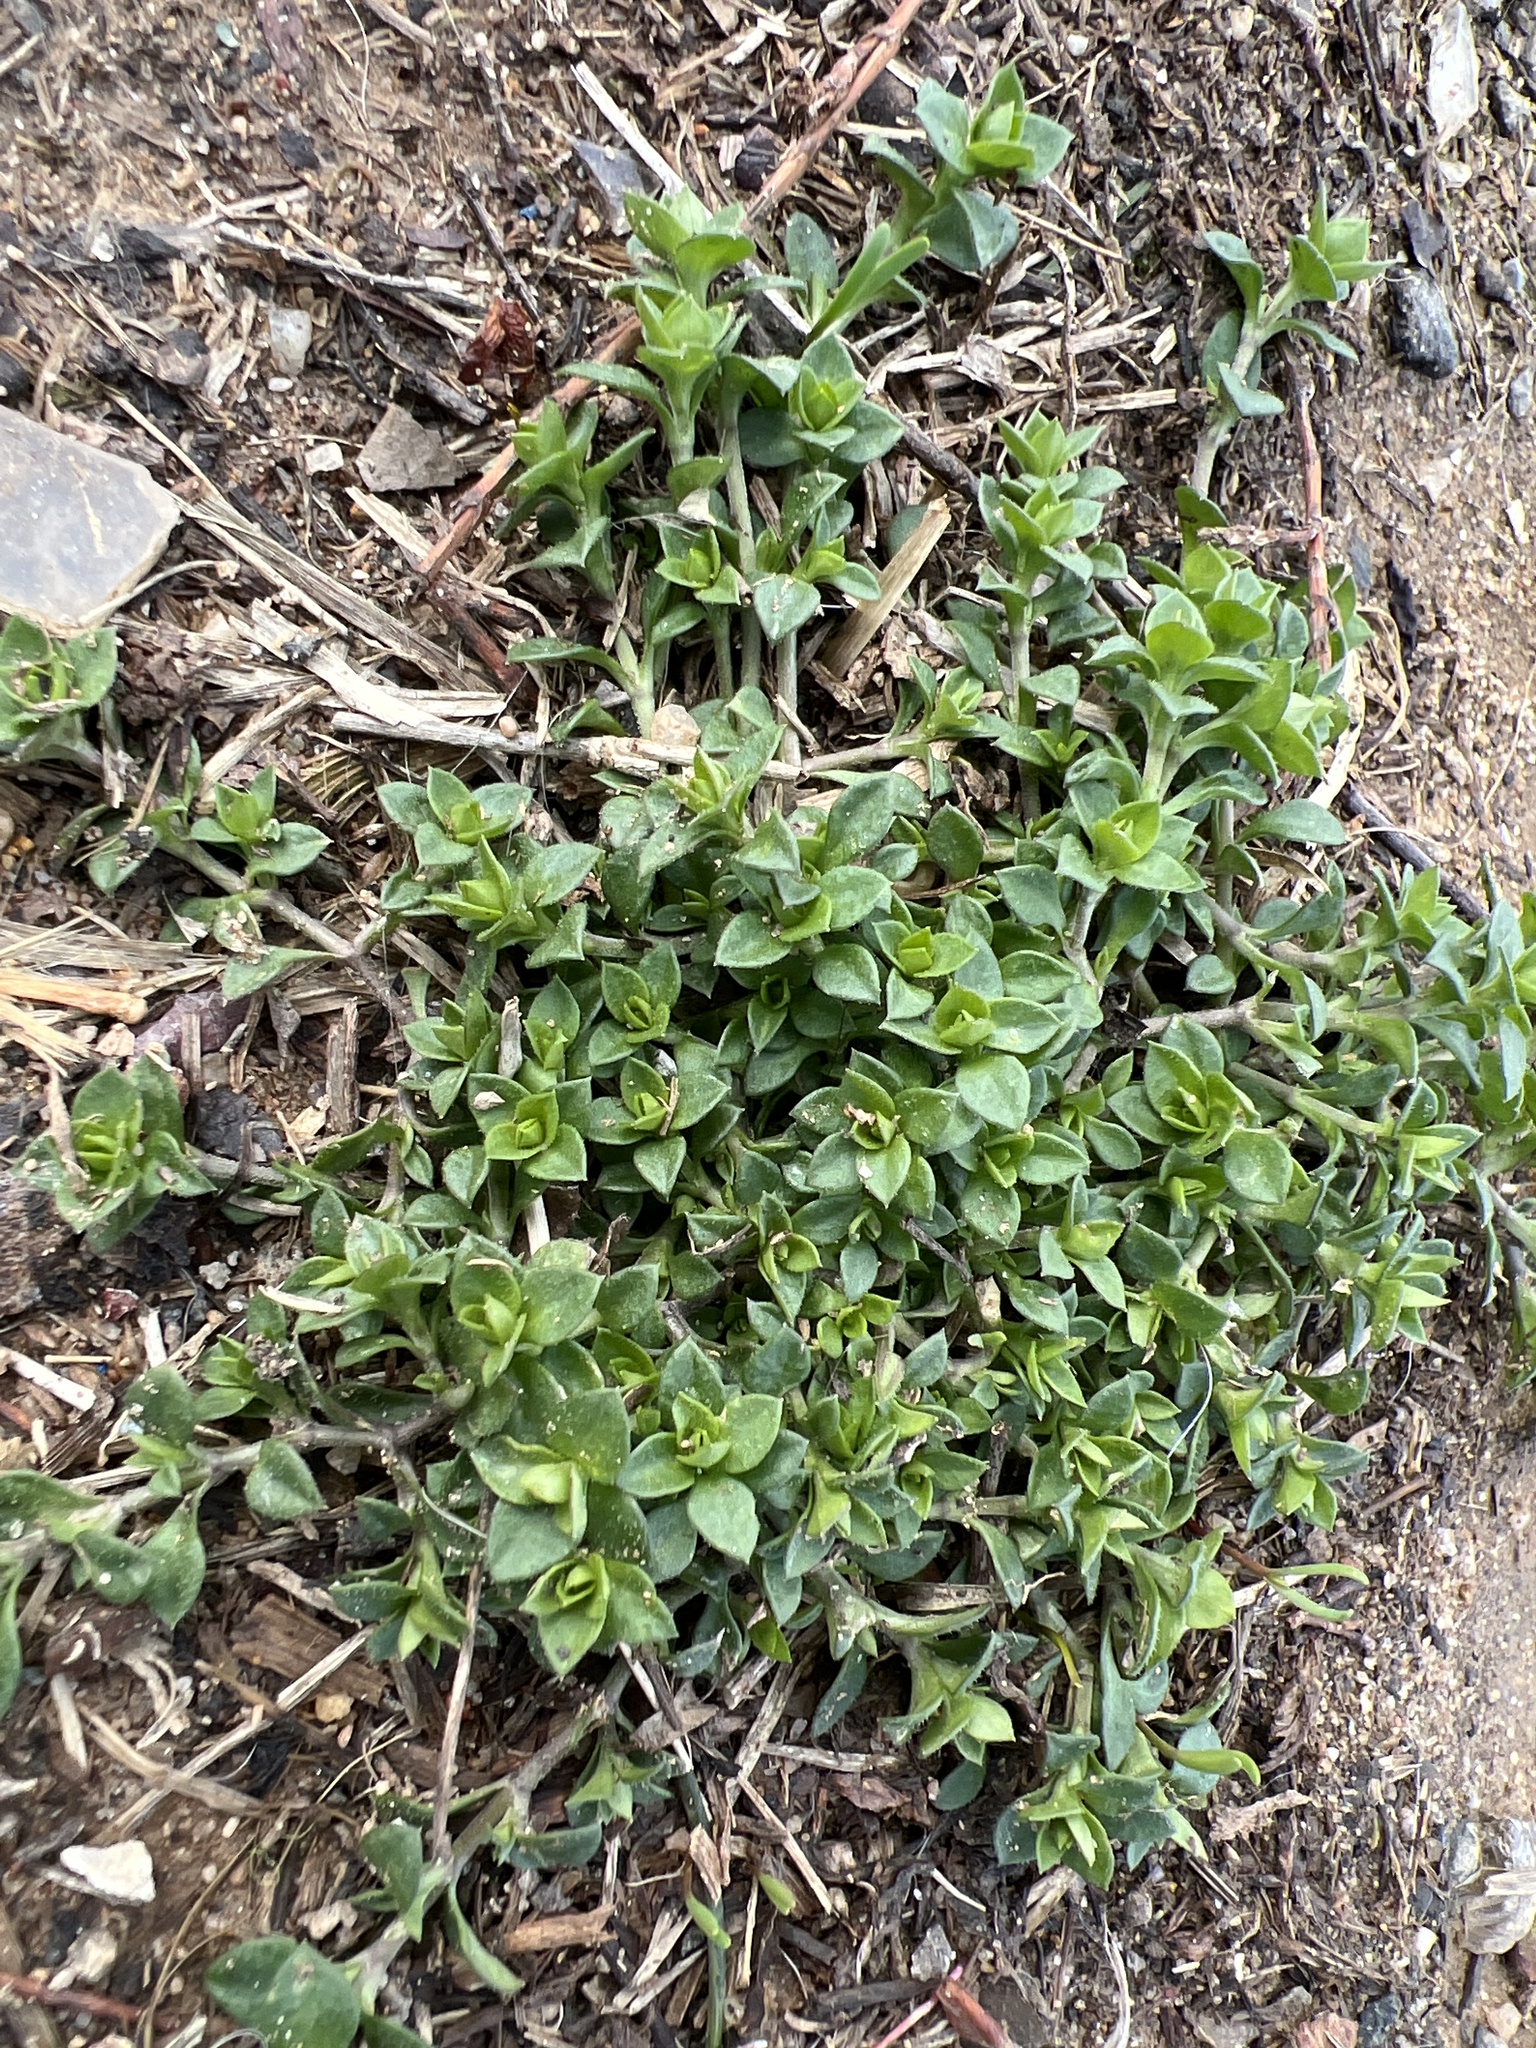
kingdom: Plantae
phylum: Tracheophyta
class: Magnoliopsida
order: Caryophyllales
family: Caryophyllaceae
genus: Stellaria
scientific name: Stellaria media
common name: Common chickweed
